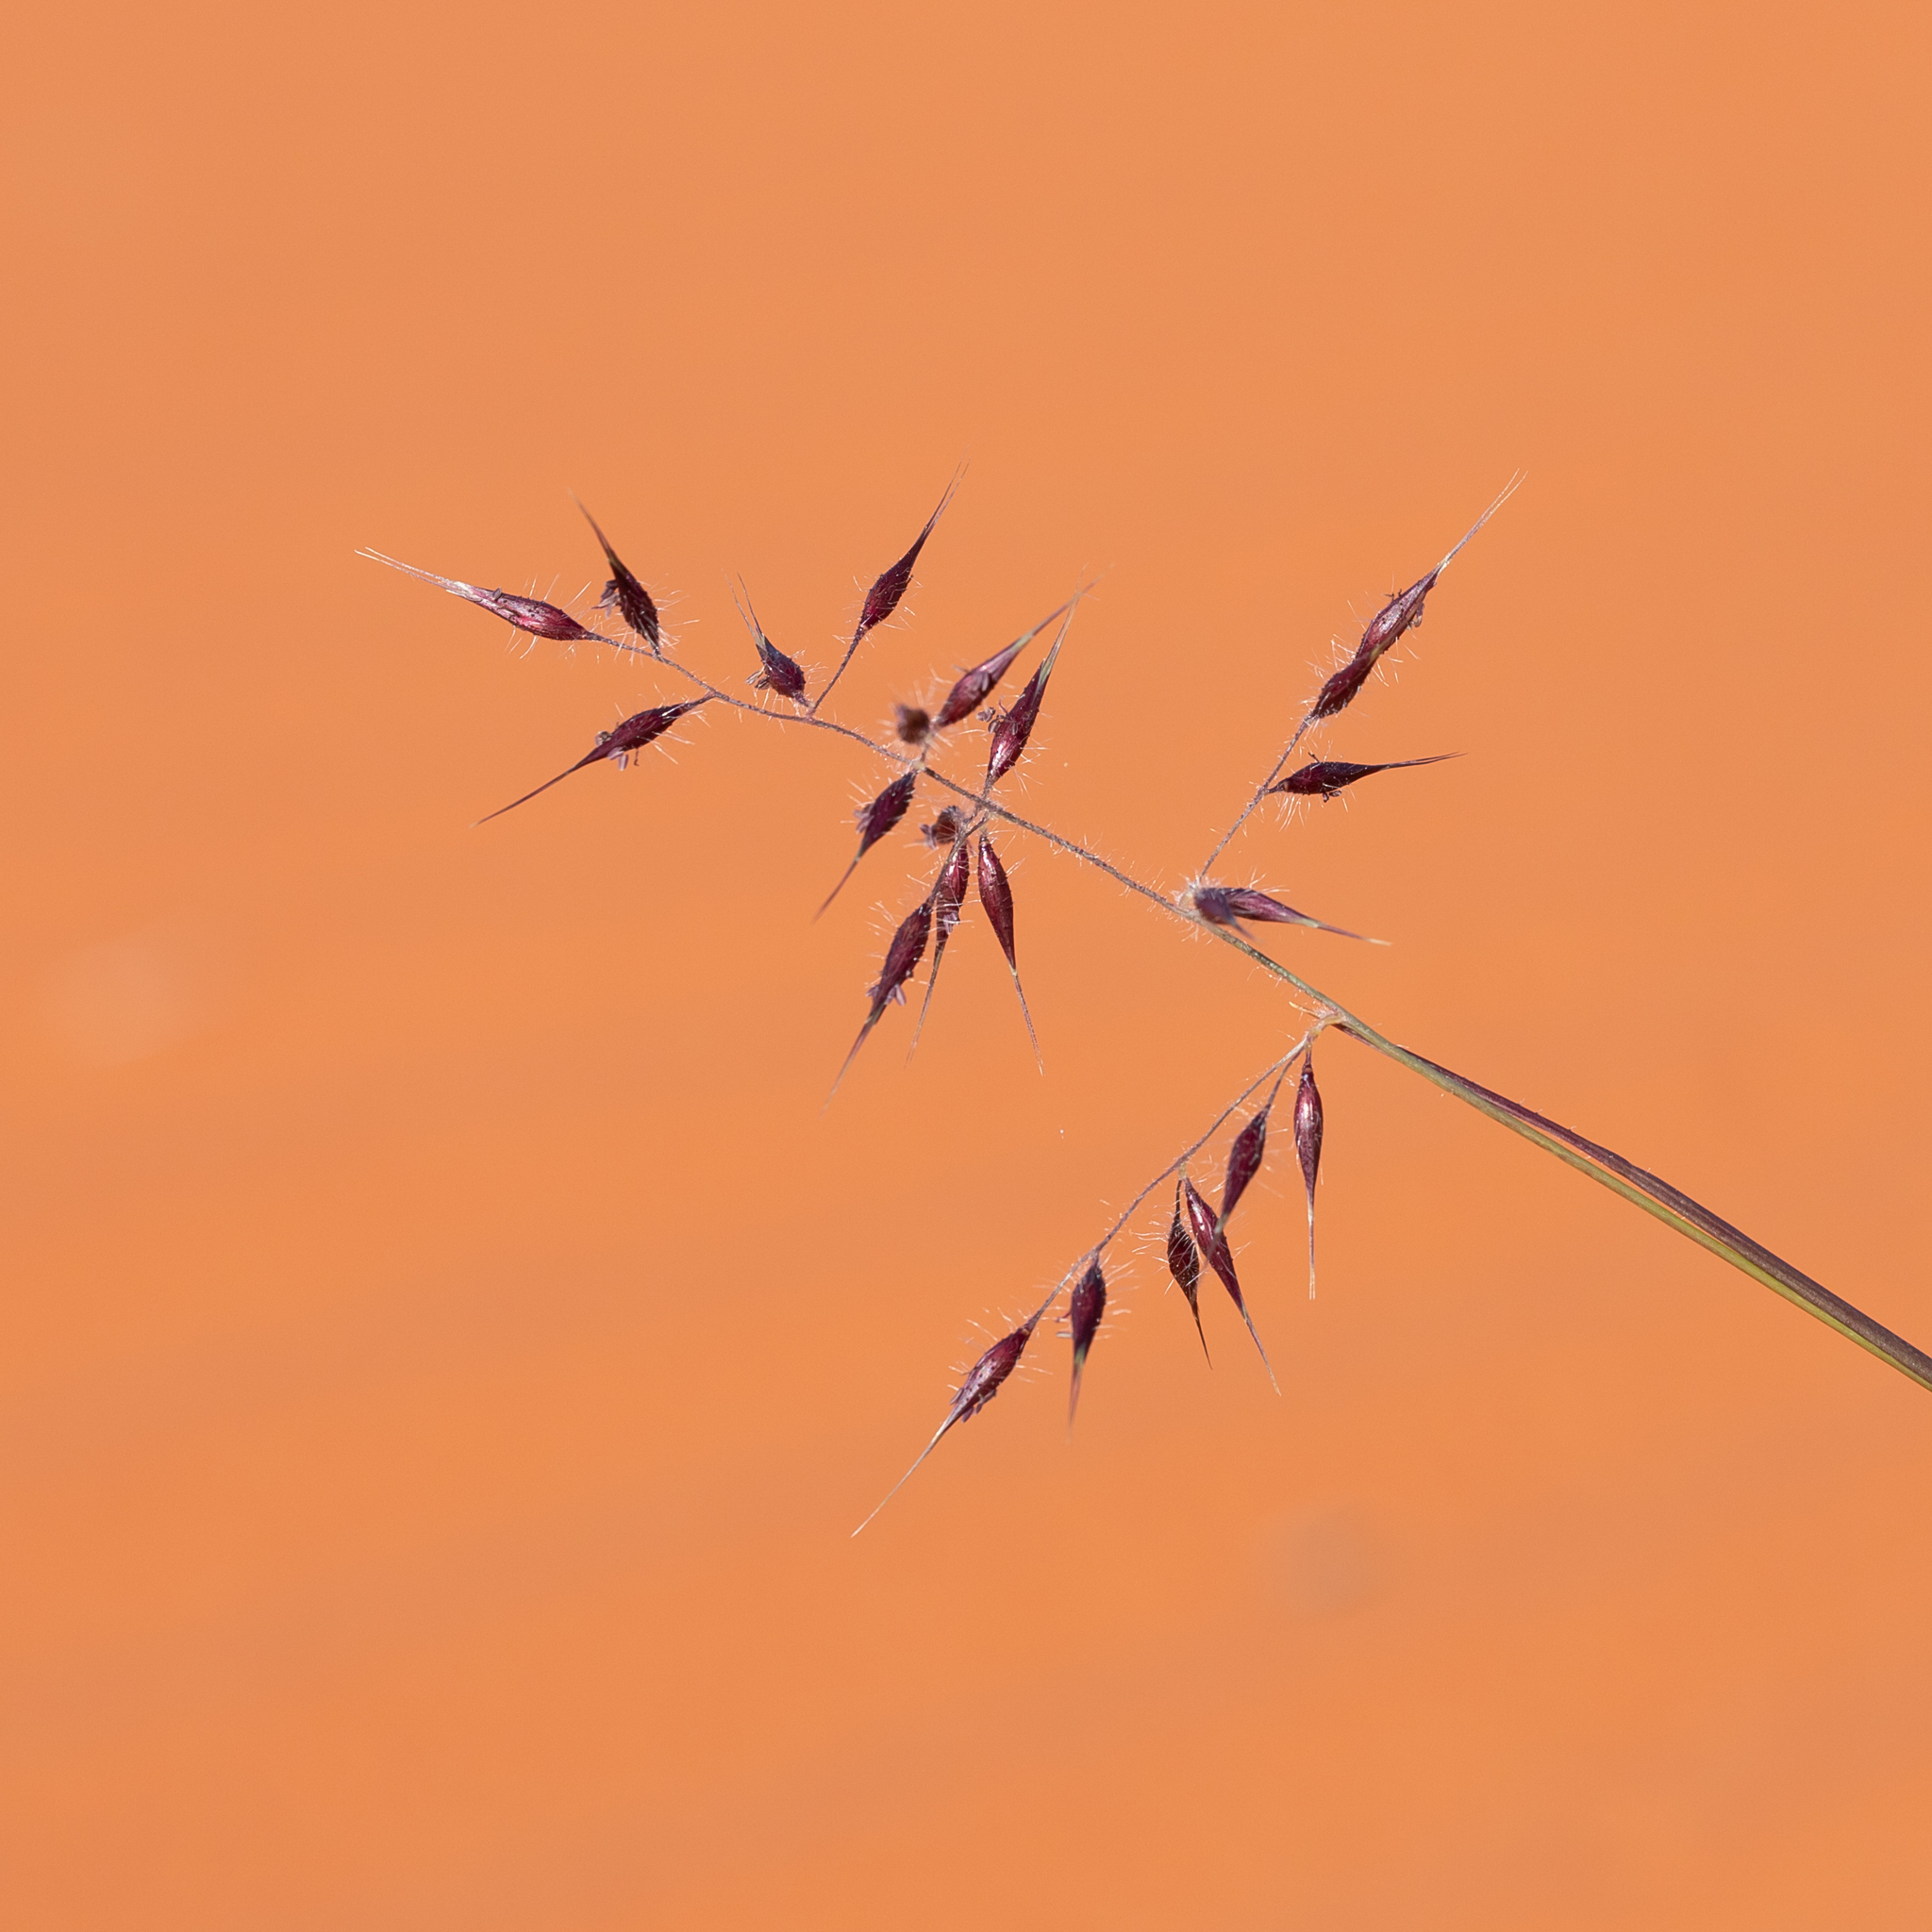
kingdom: Plantae
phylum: Tracheophyta
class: Liliopsida
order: Poales
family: Poaceae
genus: Eriachne
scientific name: Eriachne aristidea
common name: Three-awn wanderrie grass
